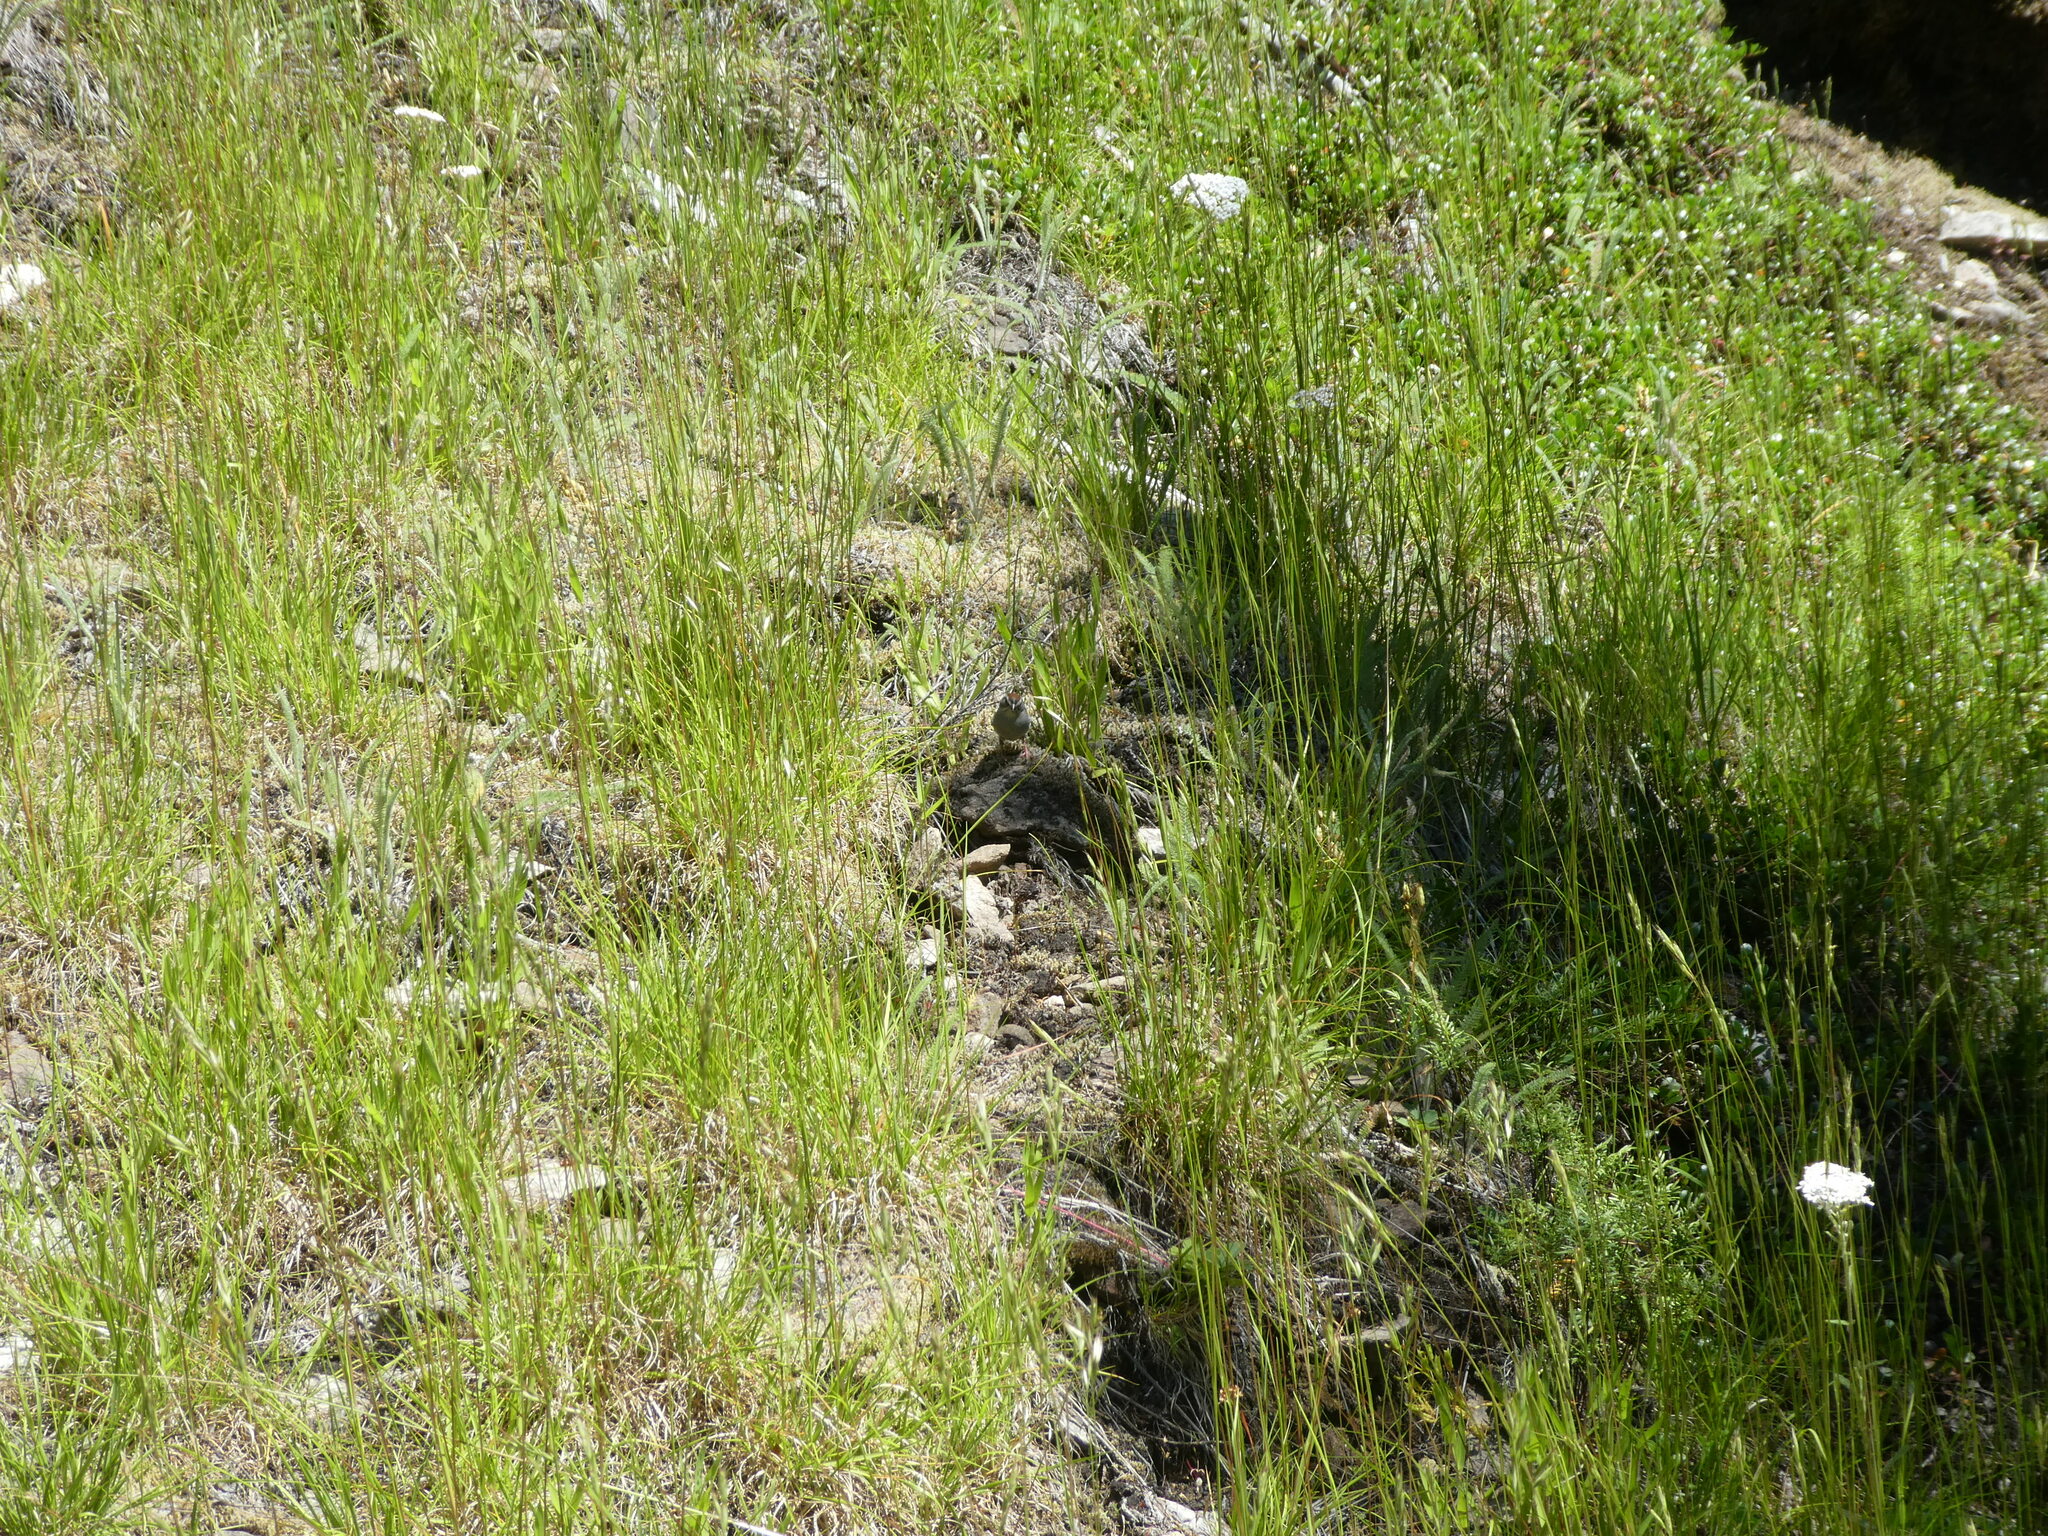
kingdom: Animalia
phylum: Chordata
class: Aves
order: Passeriformes
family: Passerellidae
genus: Spizella
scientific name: Spizella passerina
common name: Chipping sparrow
